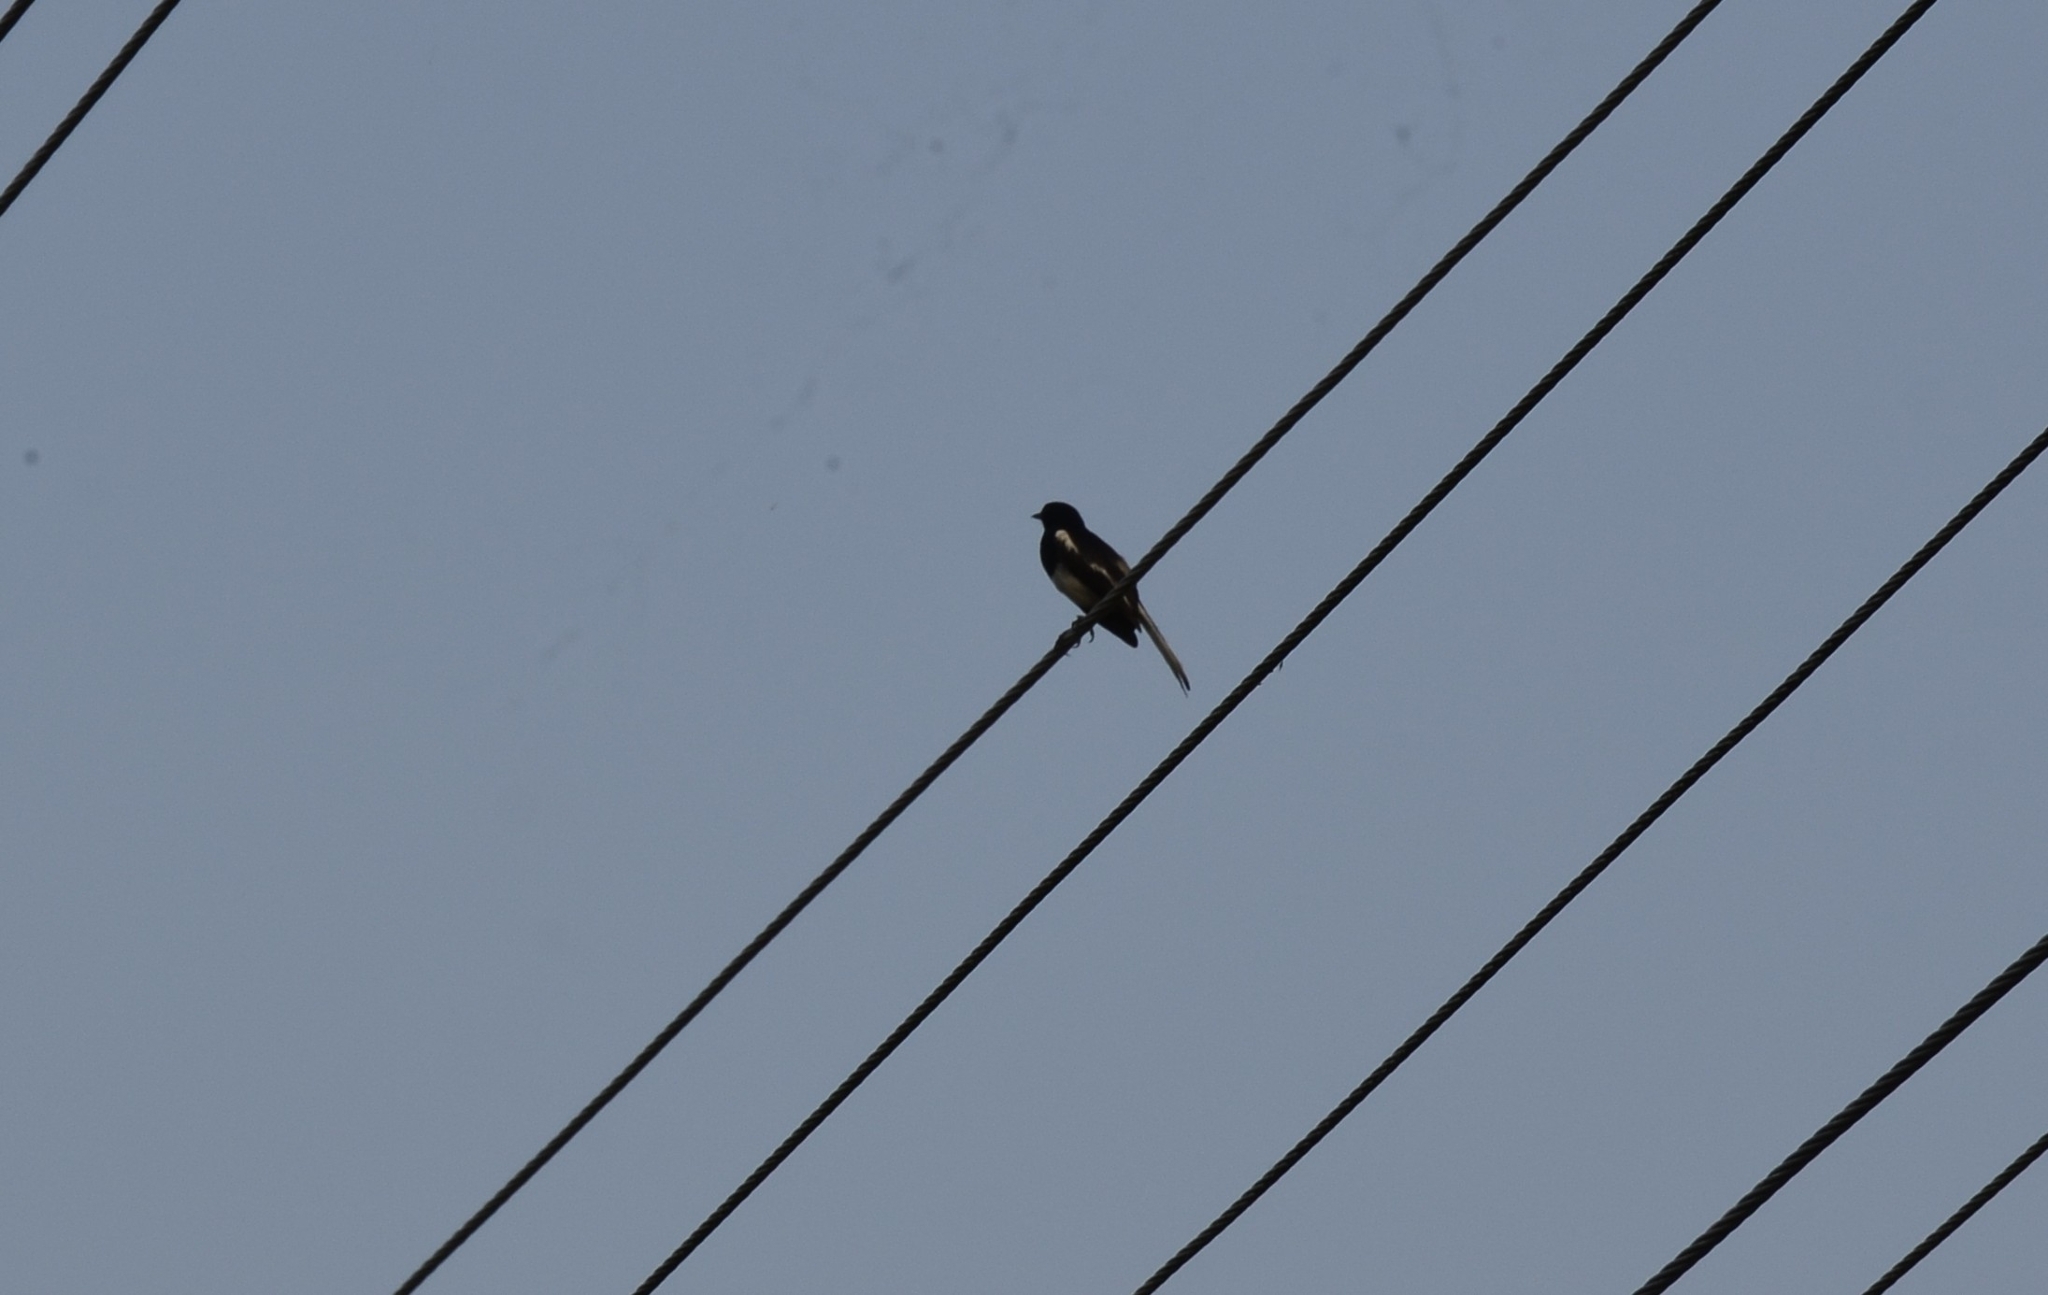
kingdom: Animalia
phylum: Chordata
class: Aves
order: Passeriformes
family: Muscicapidae
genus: Copsychus
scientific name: Copsychus saularis
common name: Oriental magpie-robin
